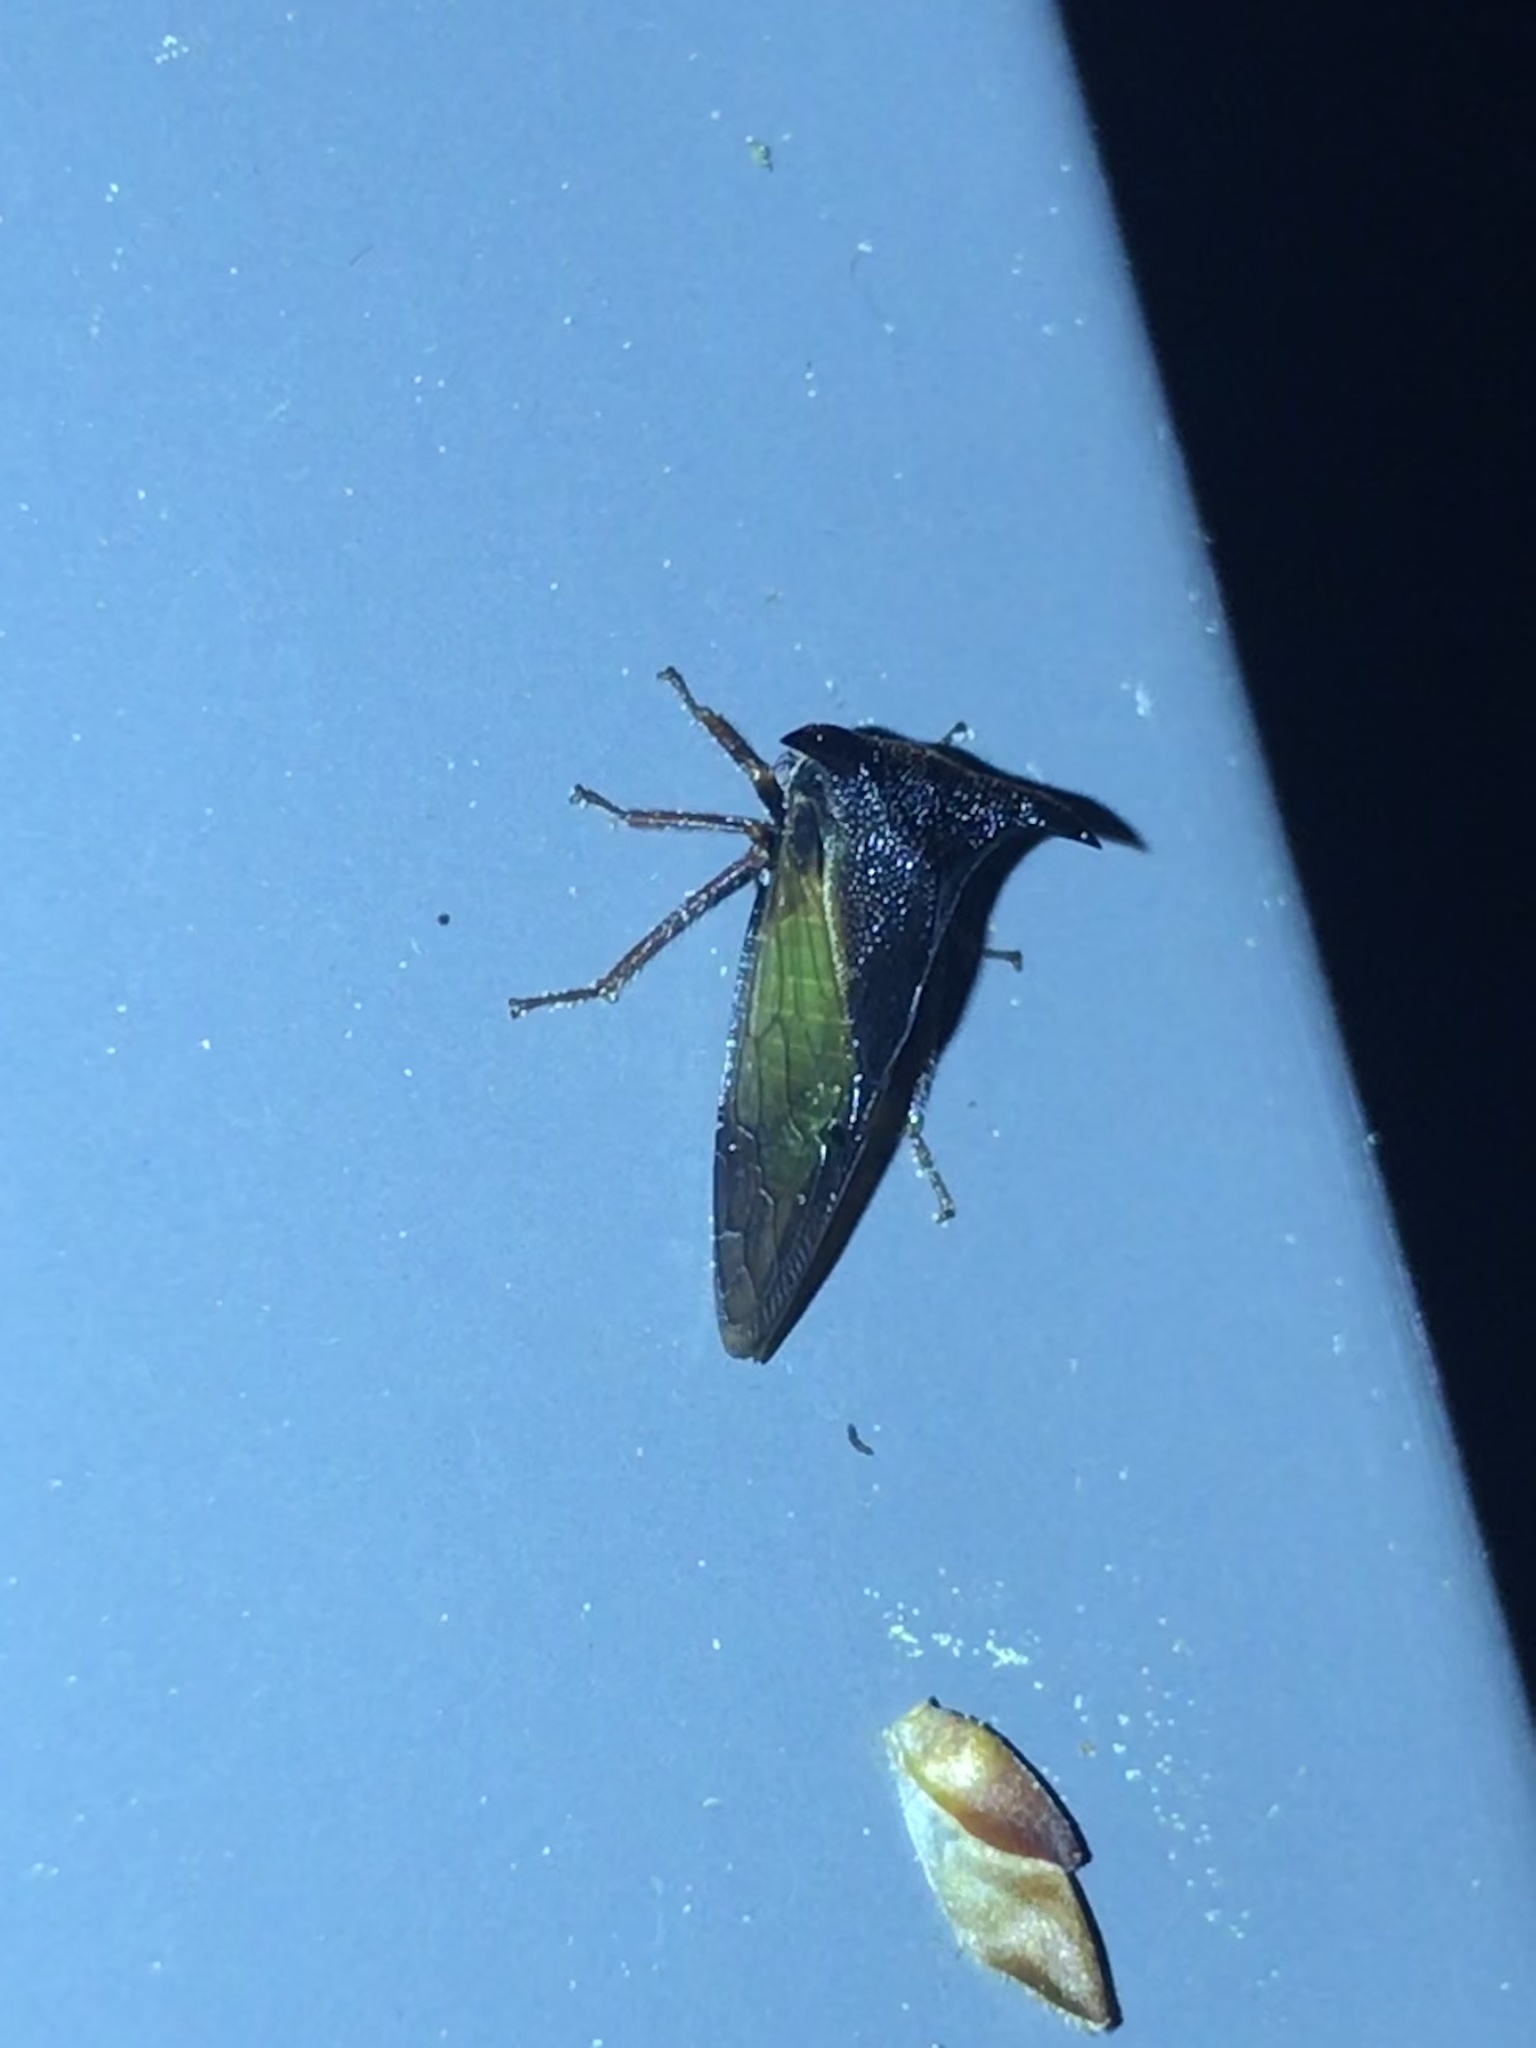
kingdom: Animalia
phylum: Arthropoda
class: Insecta
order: Hemiptera
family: Membracidae
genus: Stictocephala
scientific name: Stictocephala stimulea
